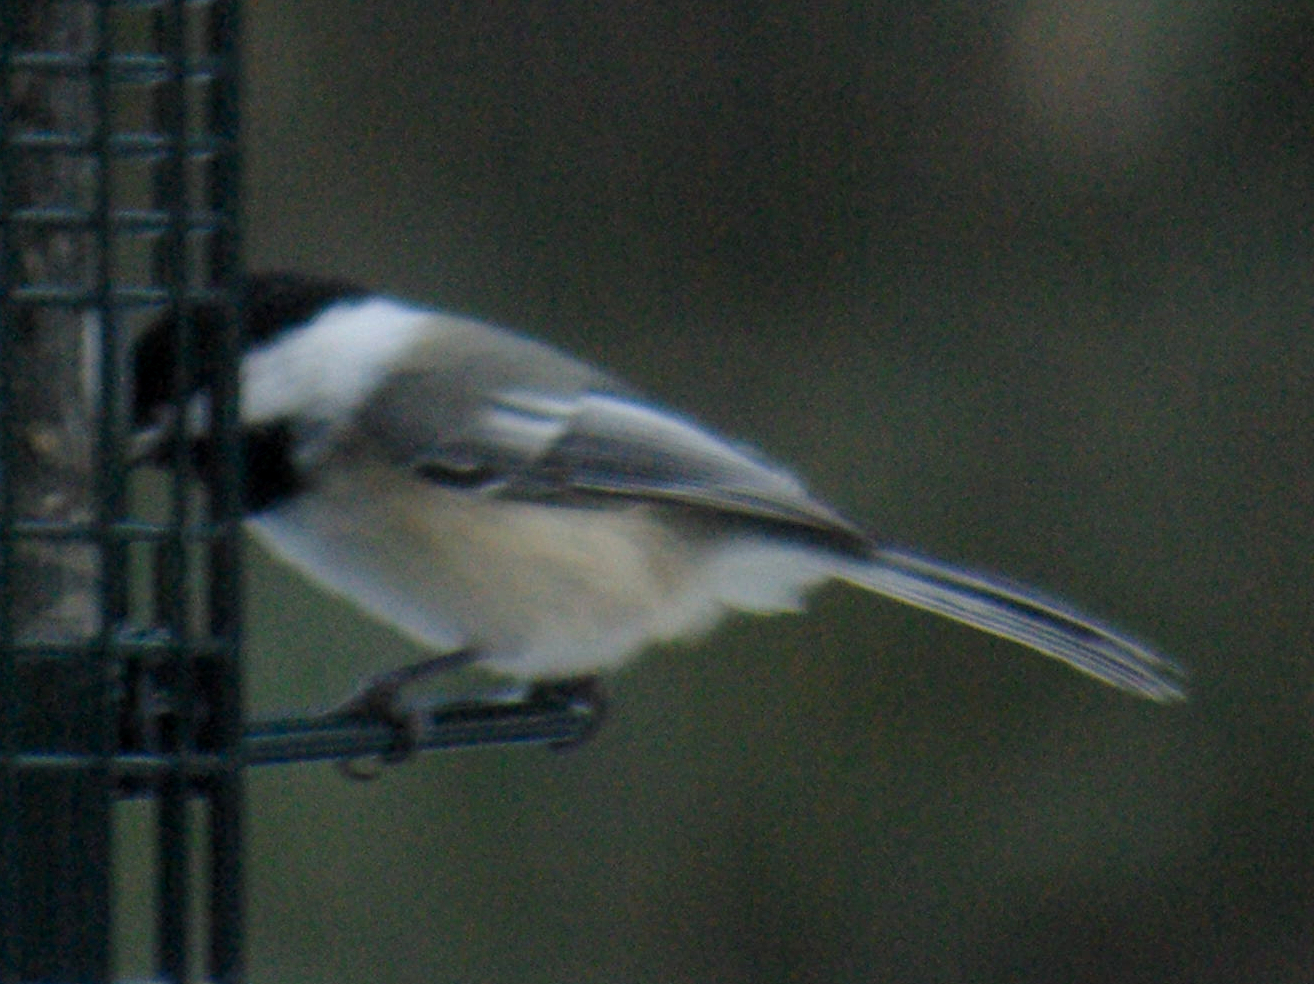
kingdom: Animalia
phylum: Chordata
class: Aves
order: Passeriformes
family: Paridae
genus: Poecile
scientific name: Poecile atricapillus
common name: Black-capped chickadee
